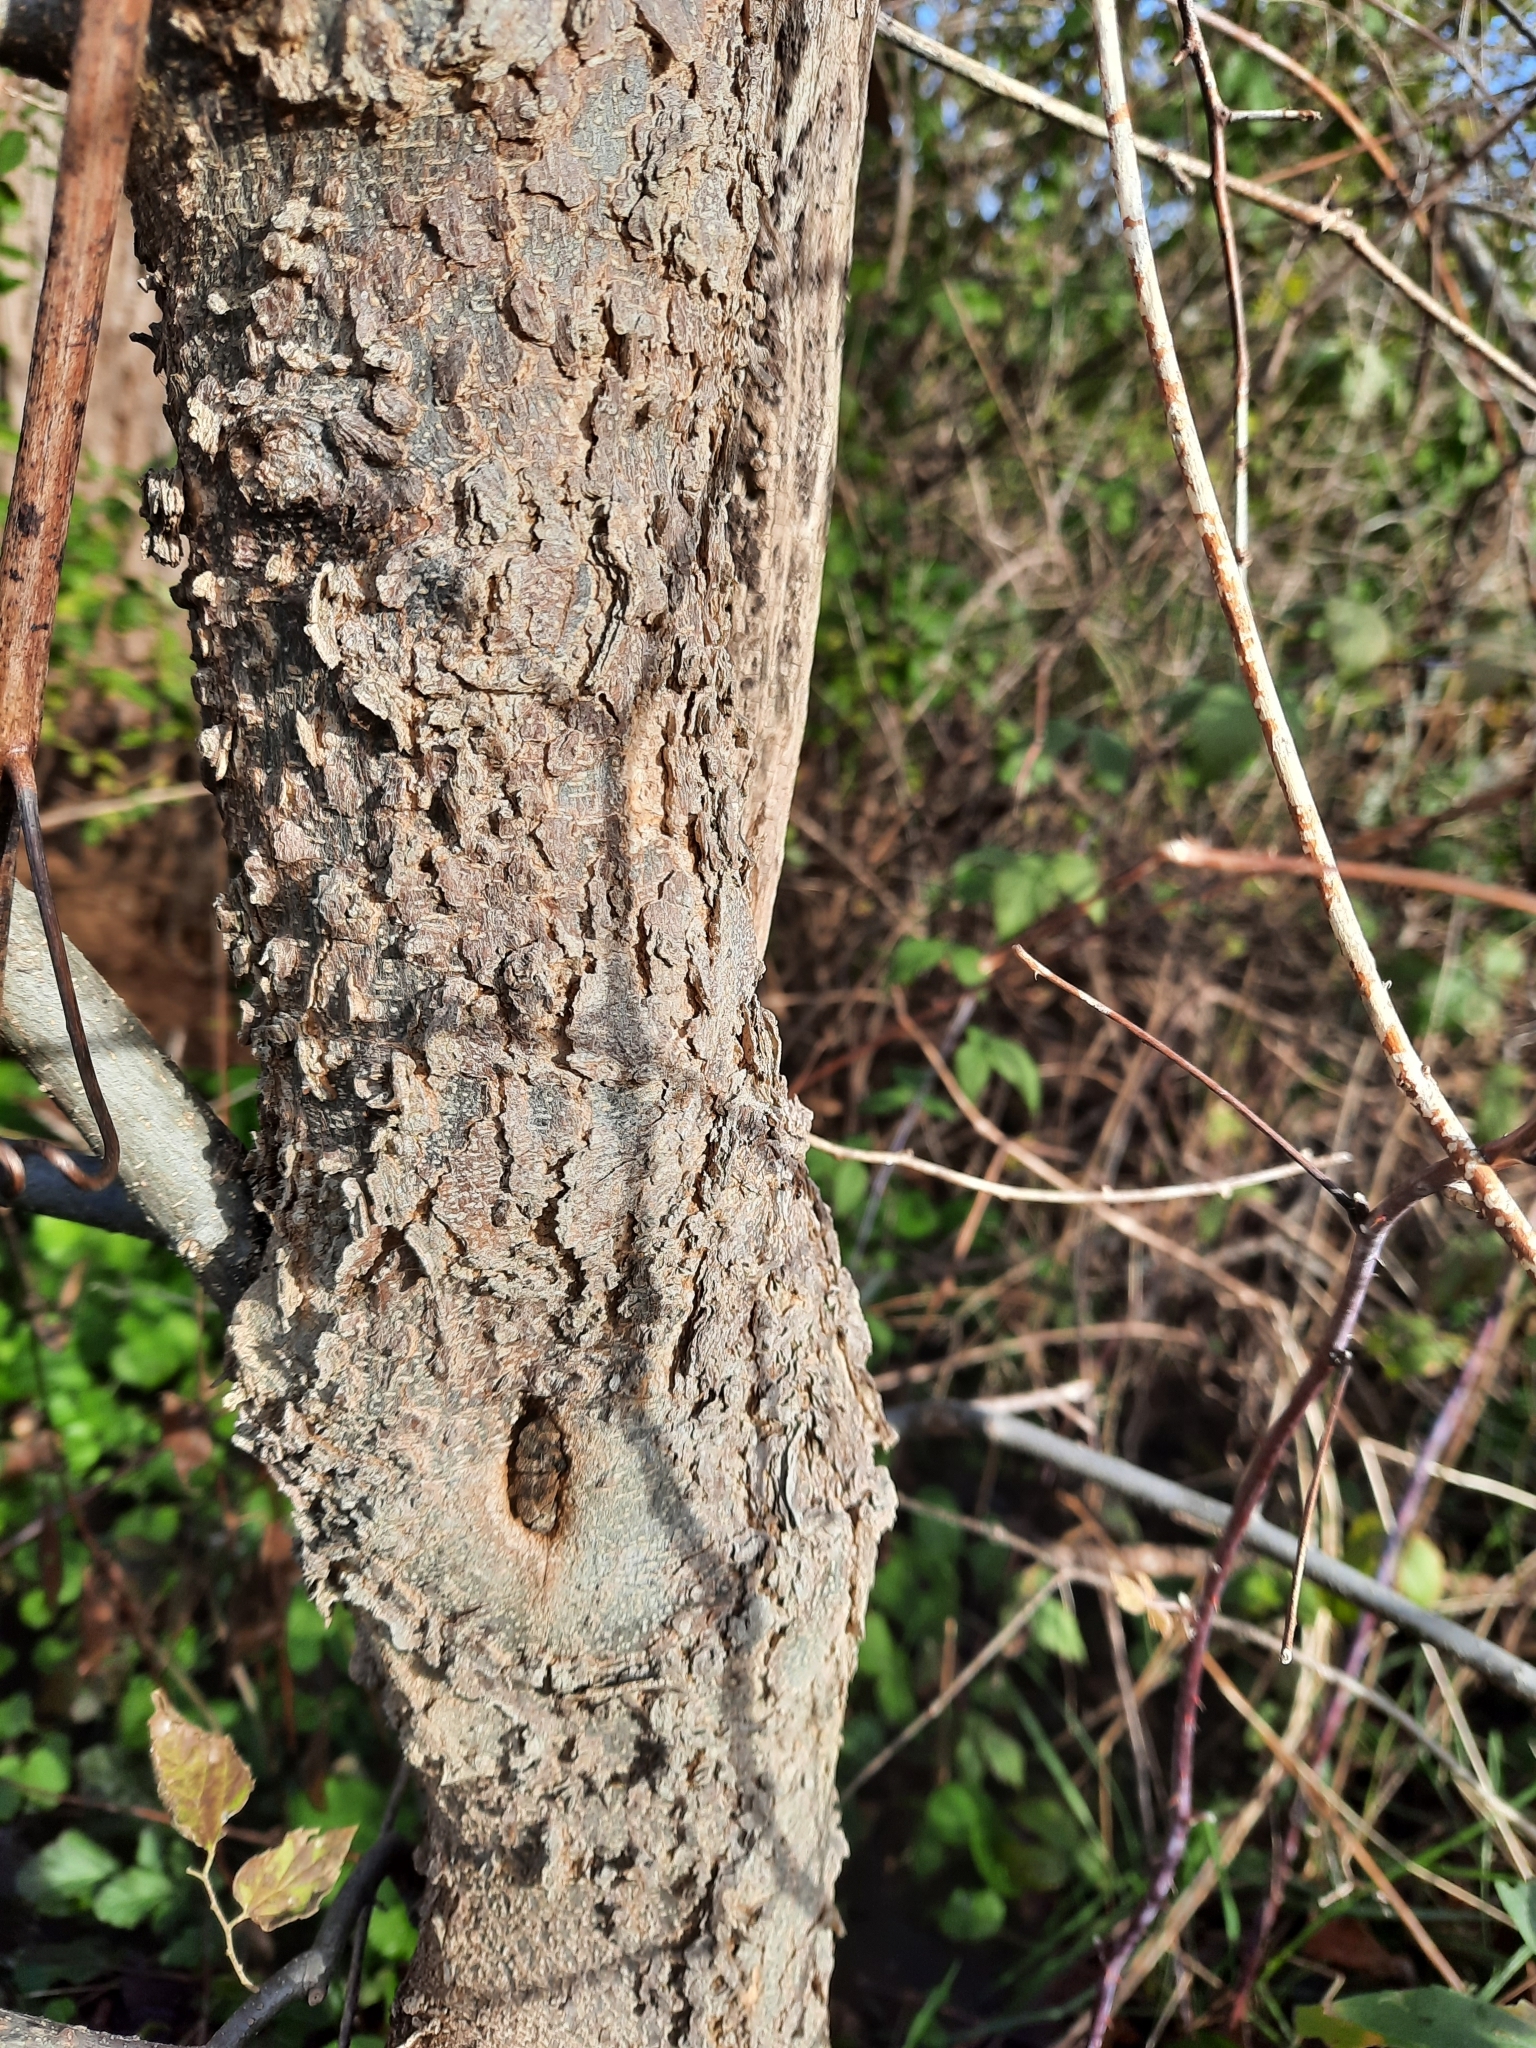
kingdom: Plantae
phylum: Tracheophyta
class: Magnoliopsida
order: Rosales
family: Cannabaceae
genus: Celtis
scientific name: Celtis occidentalis
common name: Common hackberry
